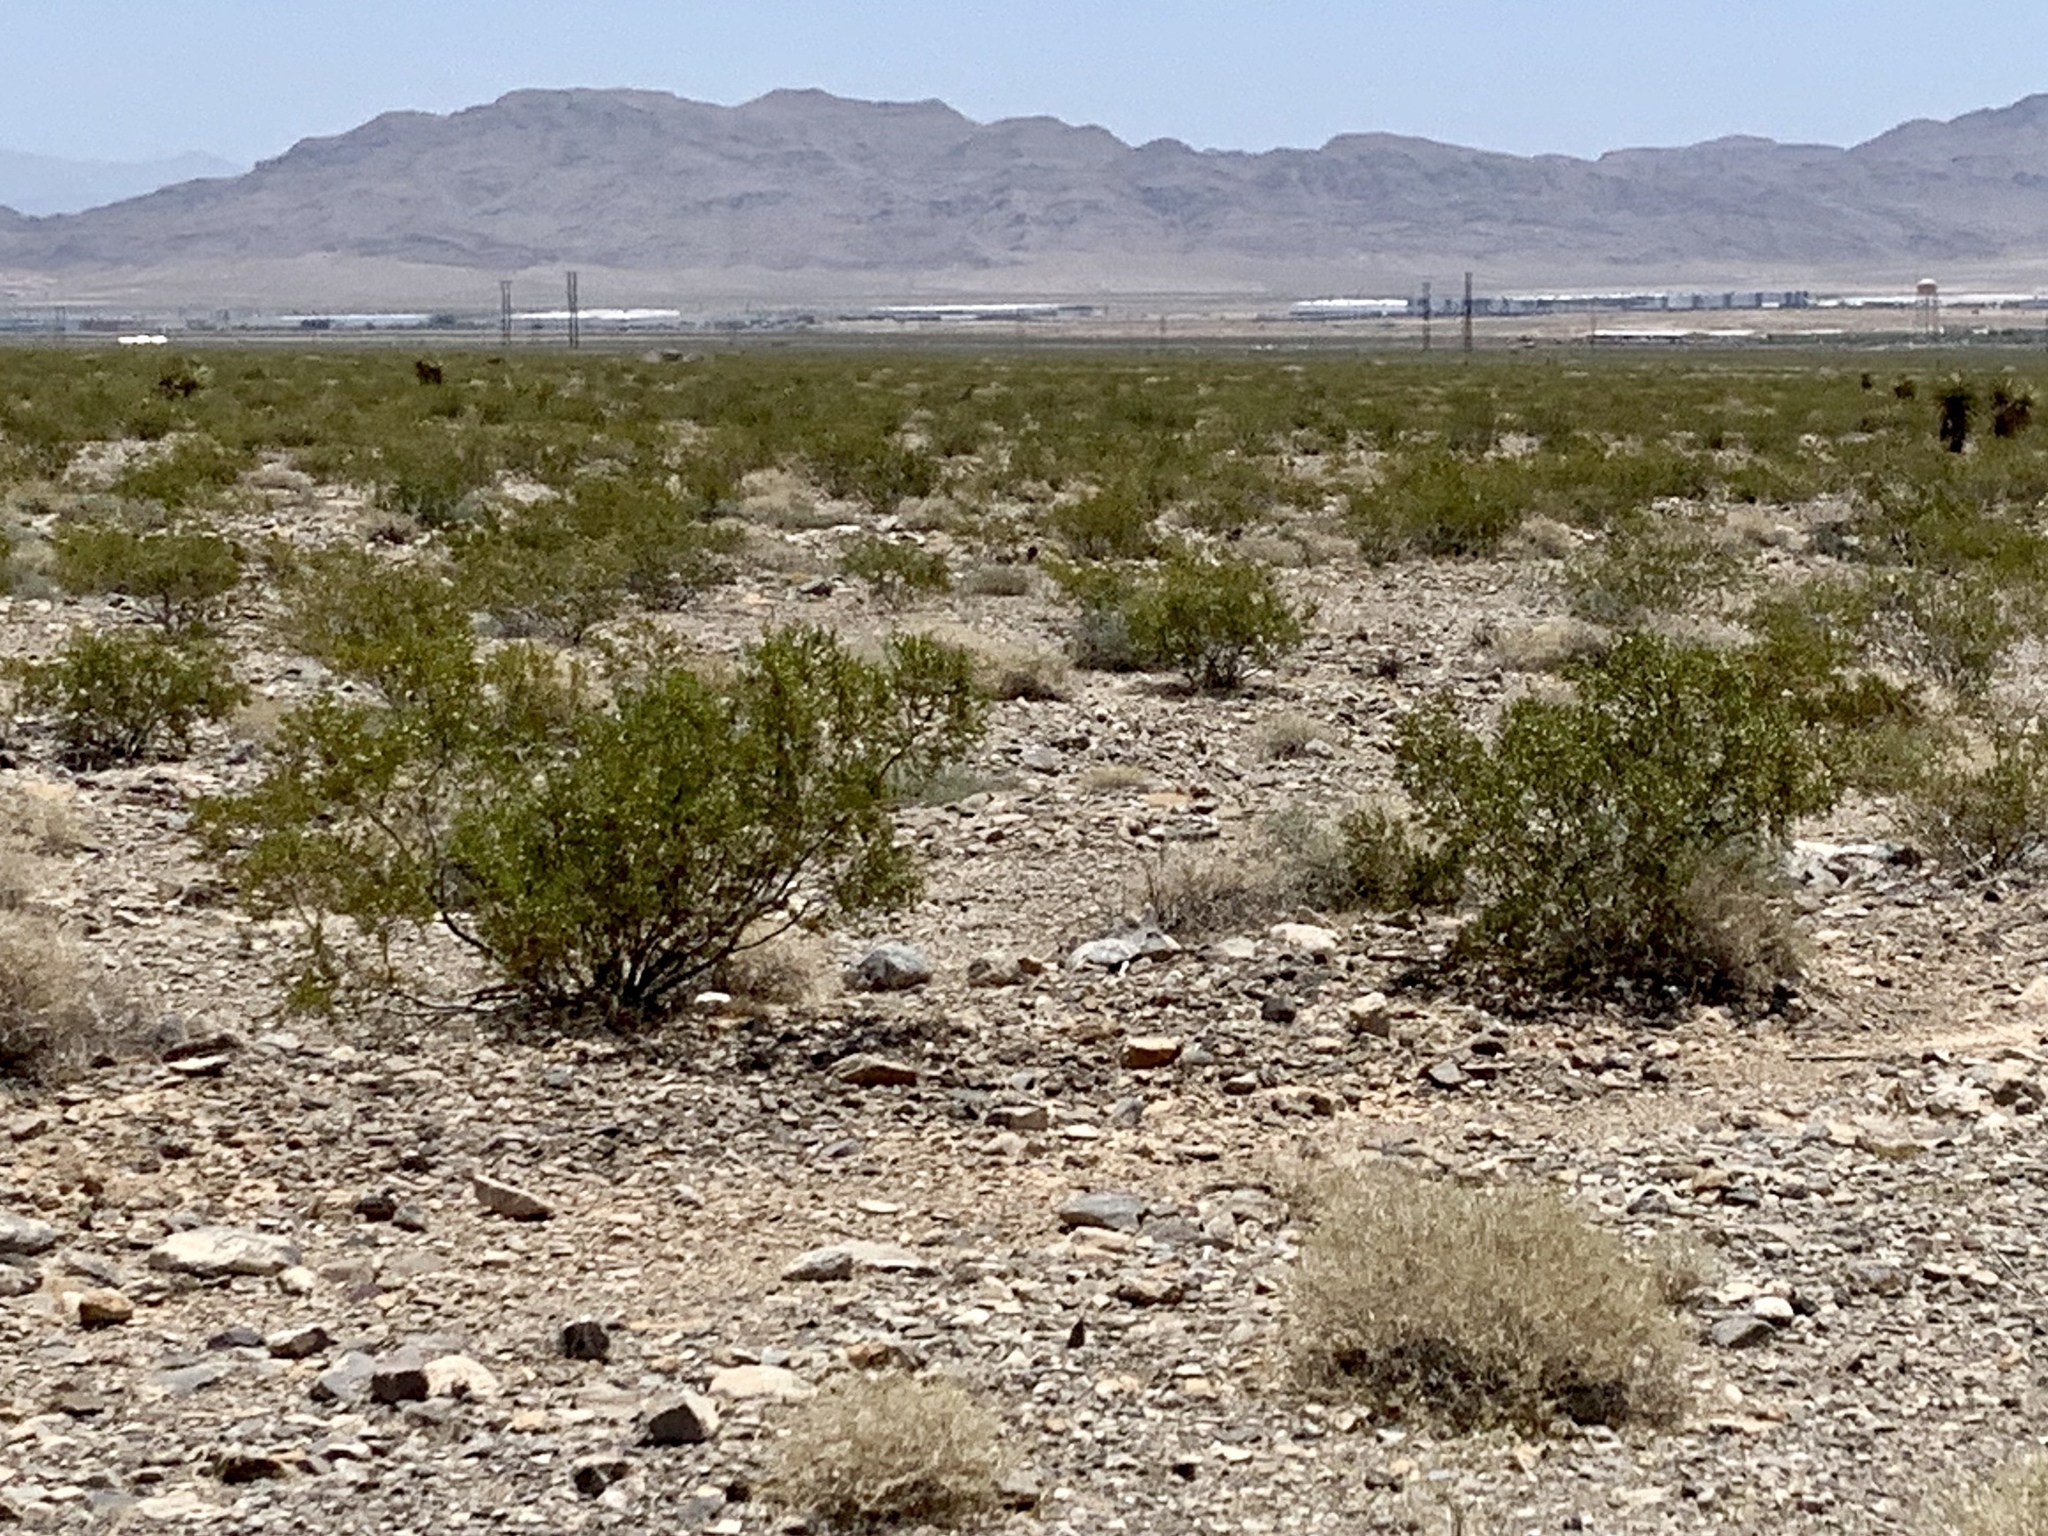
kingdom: Plantae
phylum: Tracheophyta
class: Magnoliopsida
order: Zygophyllales
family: Zygophyllaceae
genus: Larrea
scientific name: Larrea tridentata
